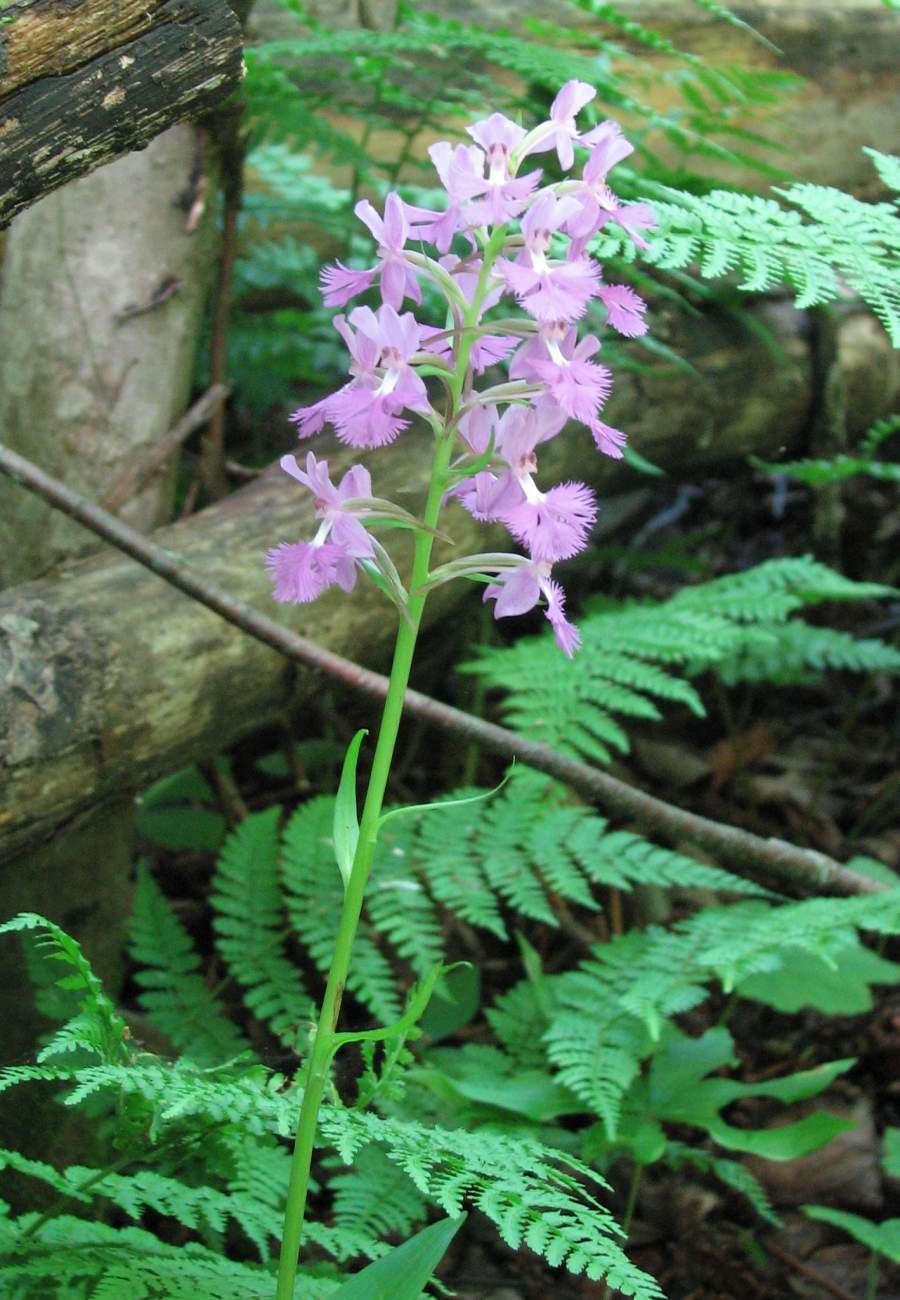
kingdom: Plantae
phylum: Tracheophyta
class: Liliopsida
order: Asparagales
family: Orchidaceae
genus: Platanthera
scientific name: Platanthera grandiflora
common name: Greater purple fringed orchid
